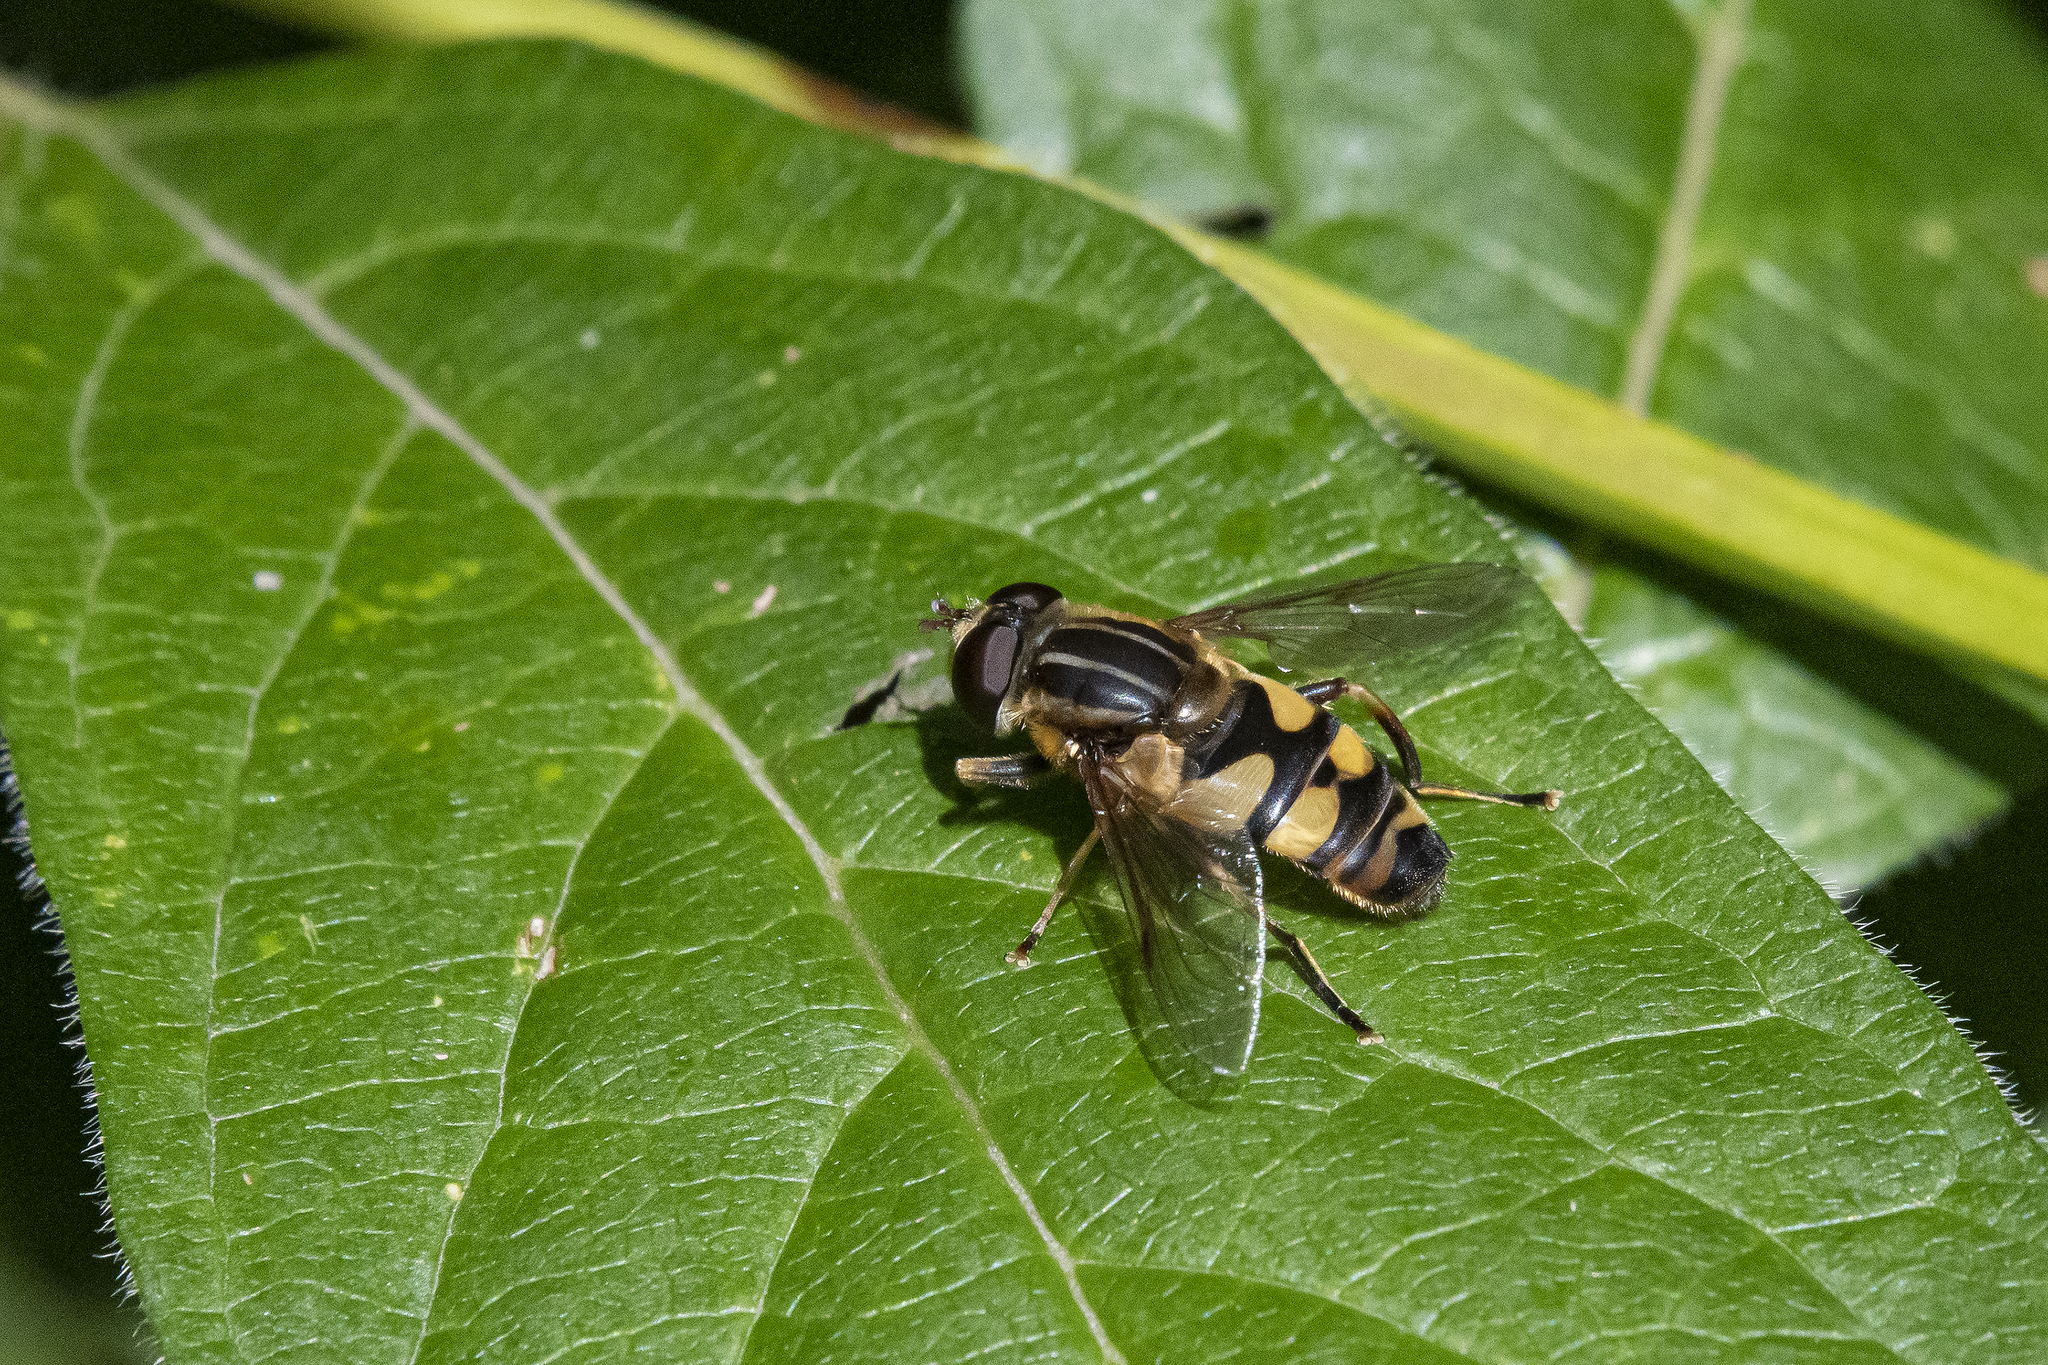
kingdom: Animalia
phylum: Arthropoda
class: Insecta
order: Diptera
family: Syrphidae
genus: Helophilus
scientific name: Helophilus fasciatus
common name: Narrow-headed marsh fly
